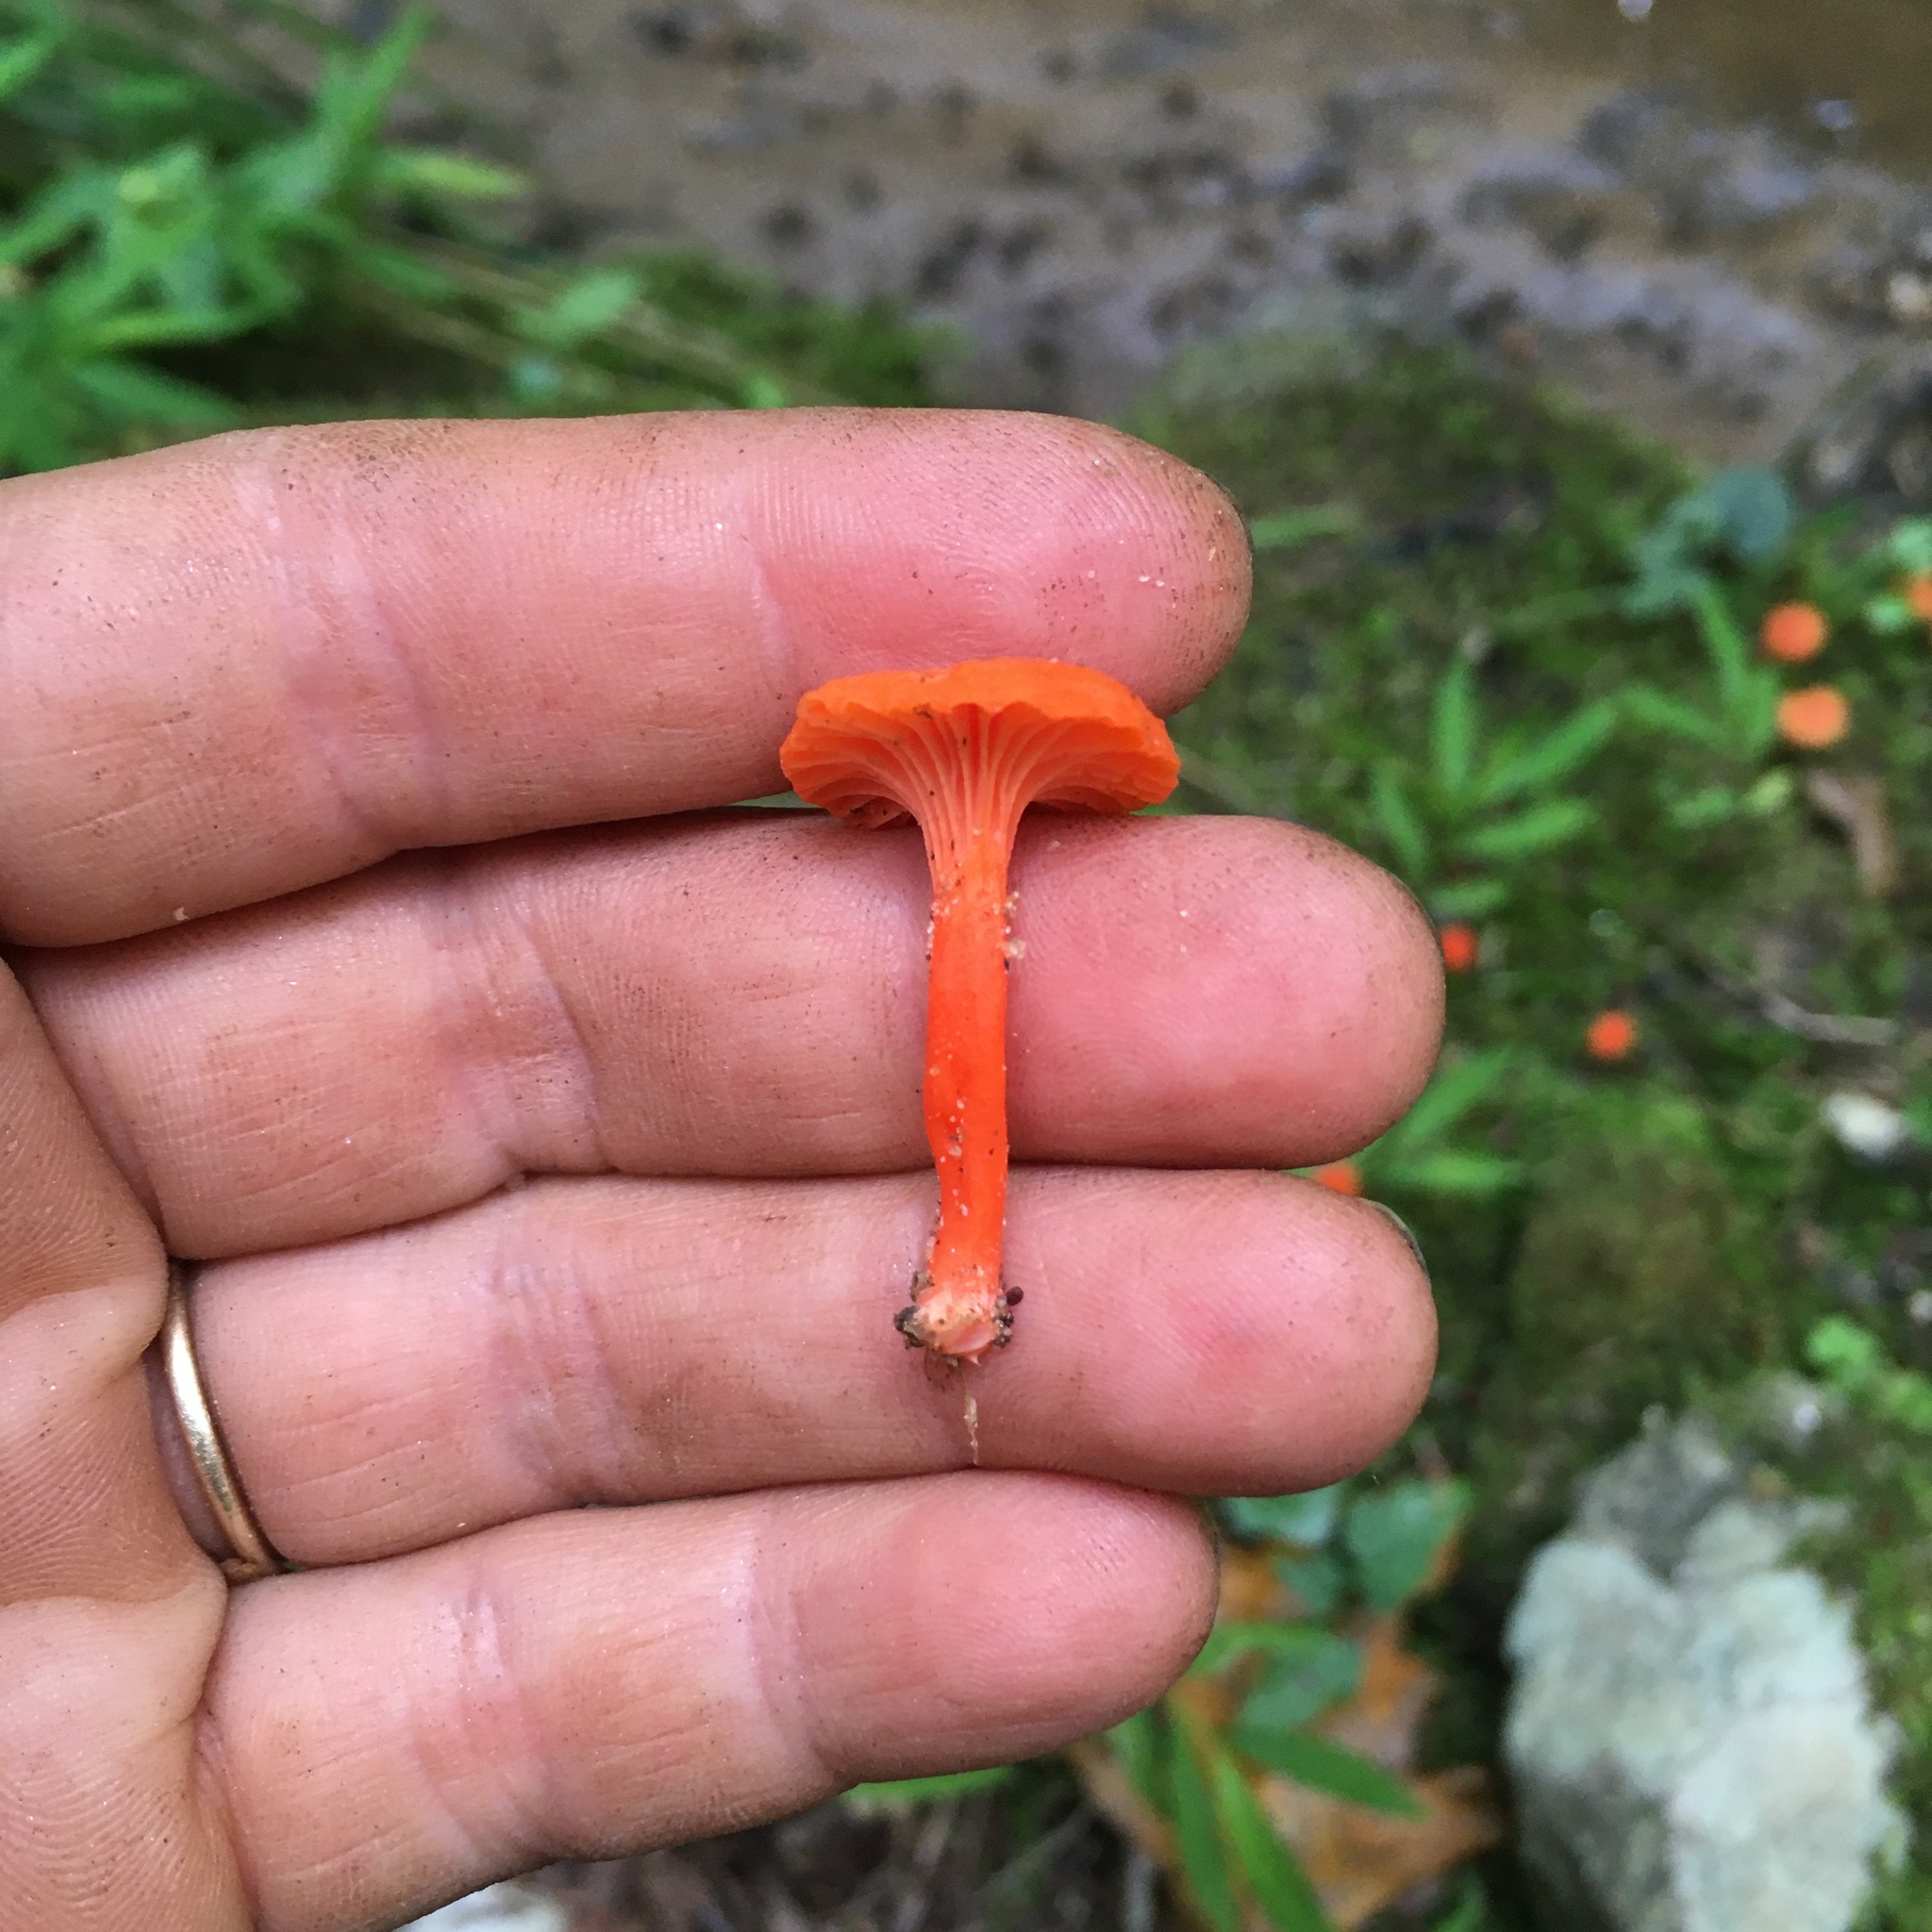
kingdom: Fungi
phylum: Basidiomycota
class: Agaricomycetes
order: Cantharellales
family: Hydnaceae
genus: Cantharellus
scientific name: Cantharellus cinnabarinus
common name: Cinnabar chanterelle
